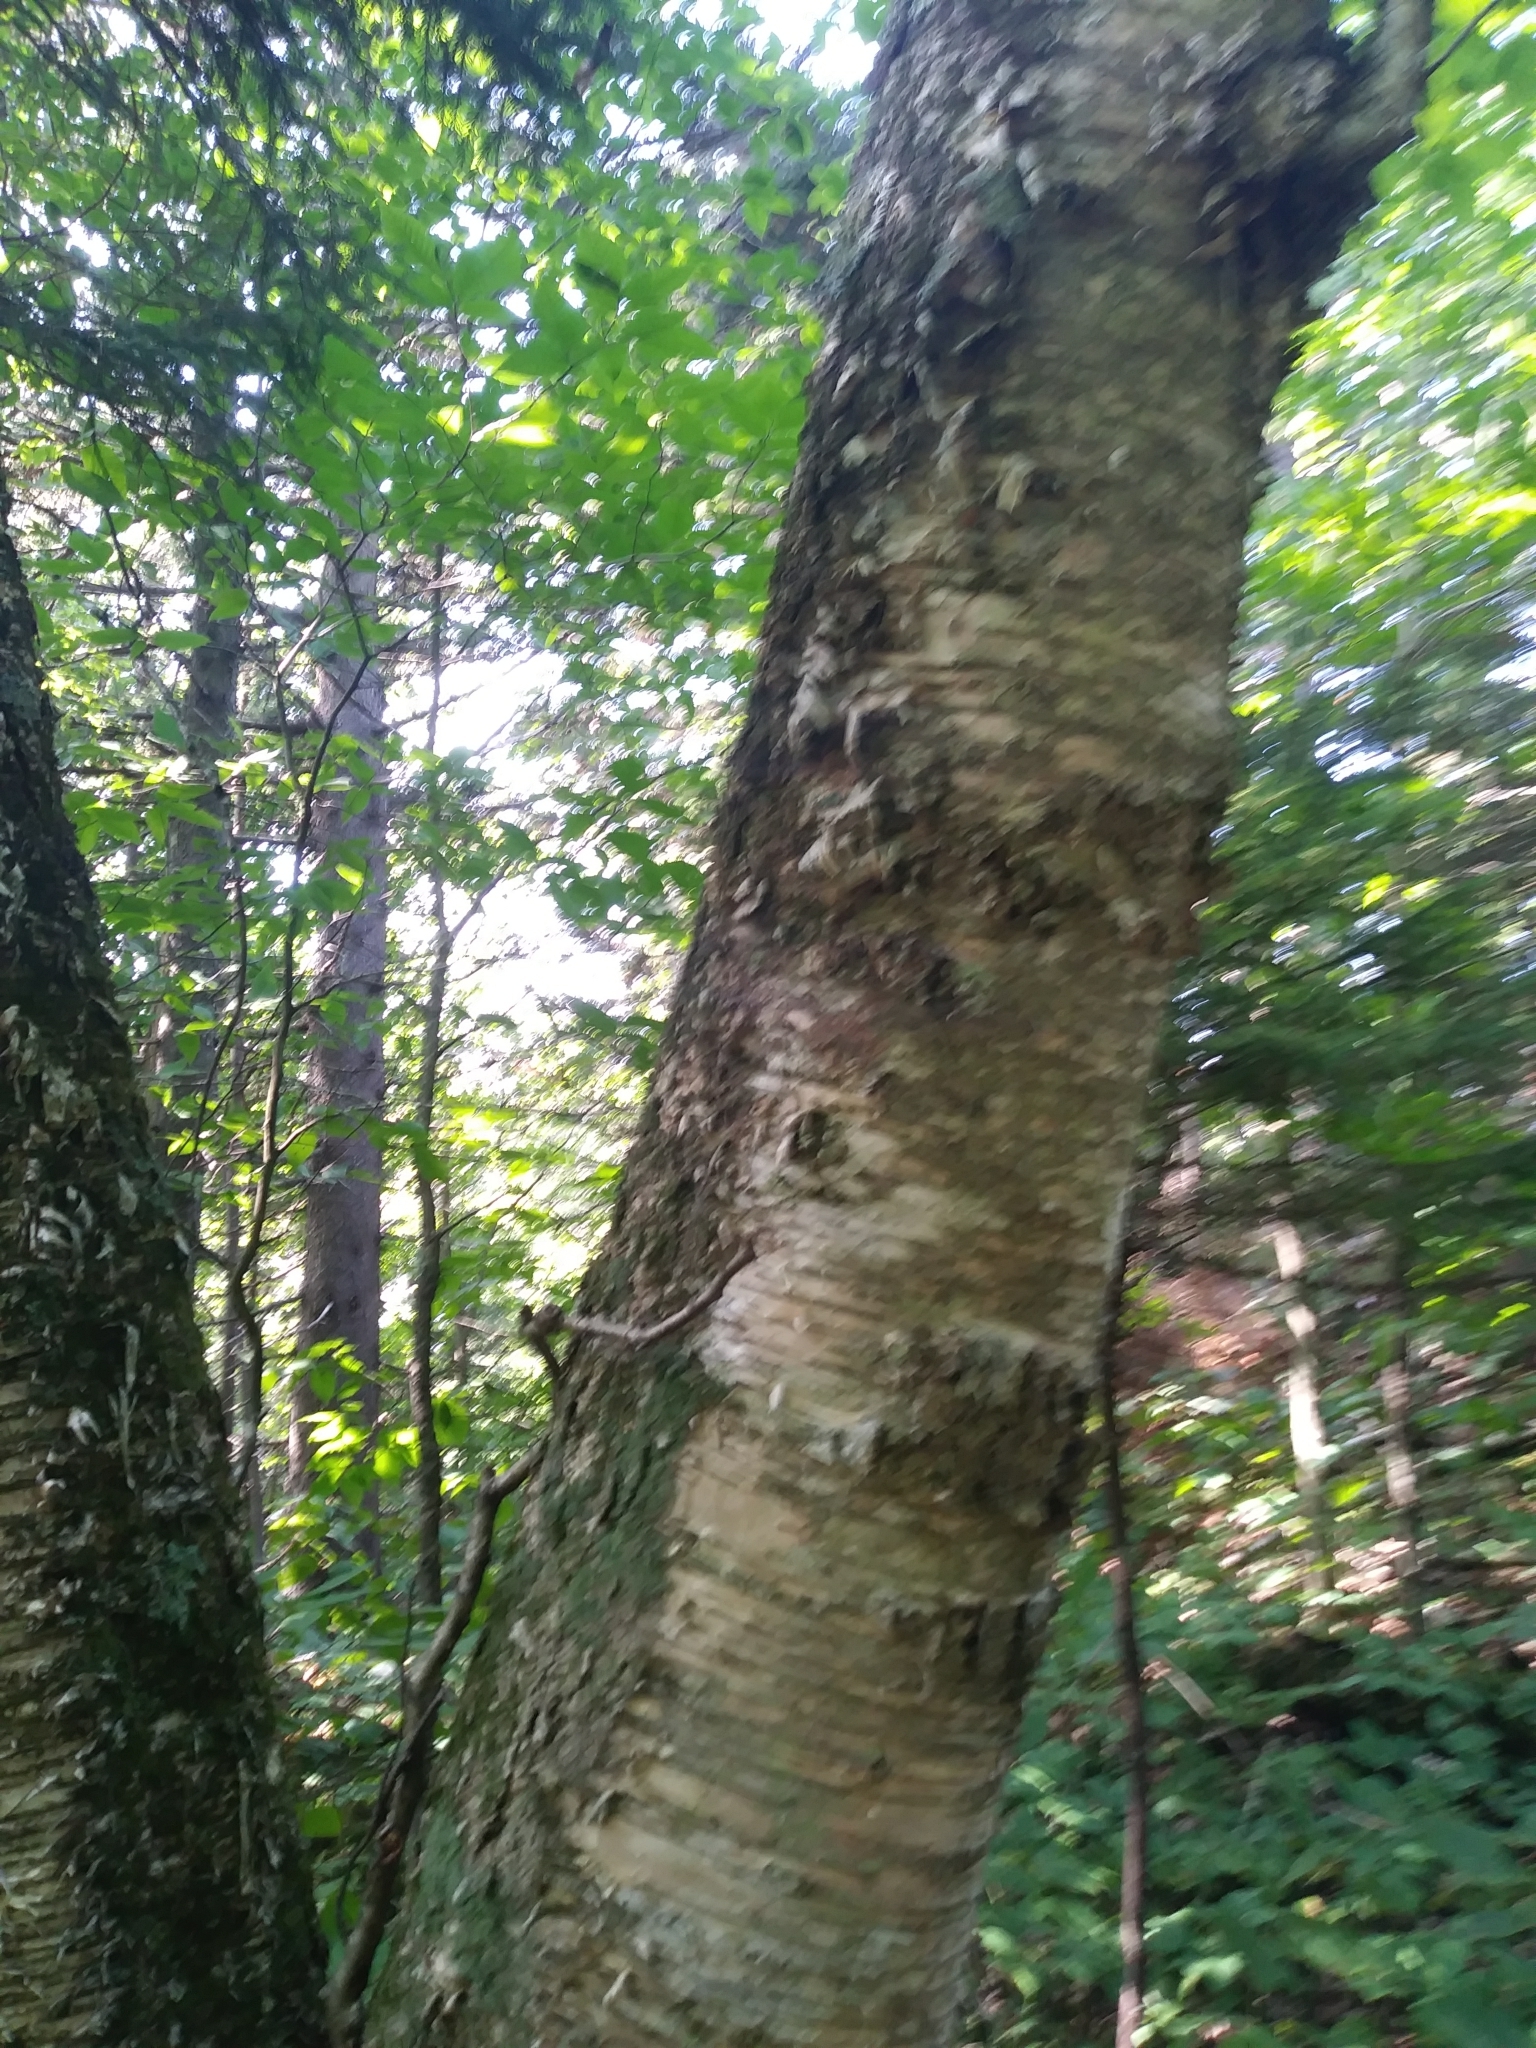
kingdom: Plantae
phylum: Tracheophyta
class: Magnoliopsida
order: Fagales
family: Betulaceae
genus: Betula
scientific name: Betula alleghaniensis
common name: Yellow birch
